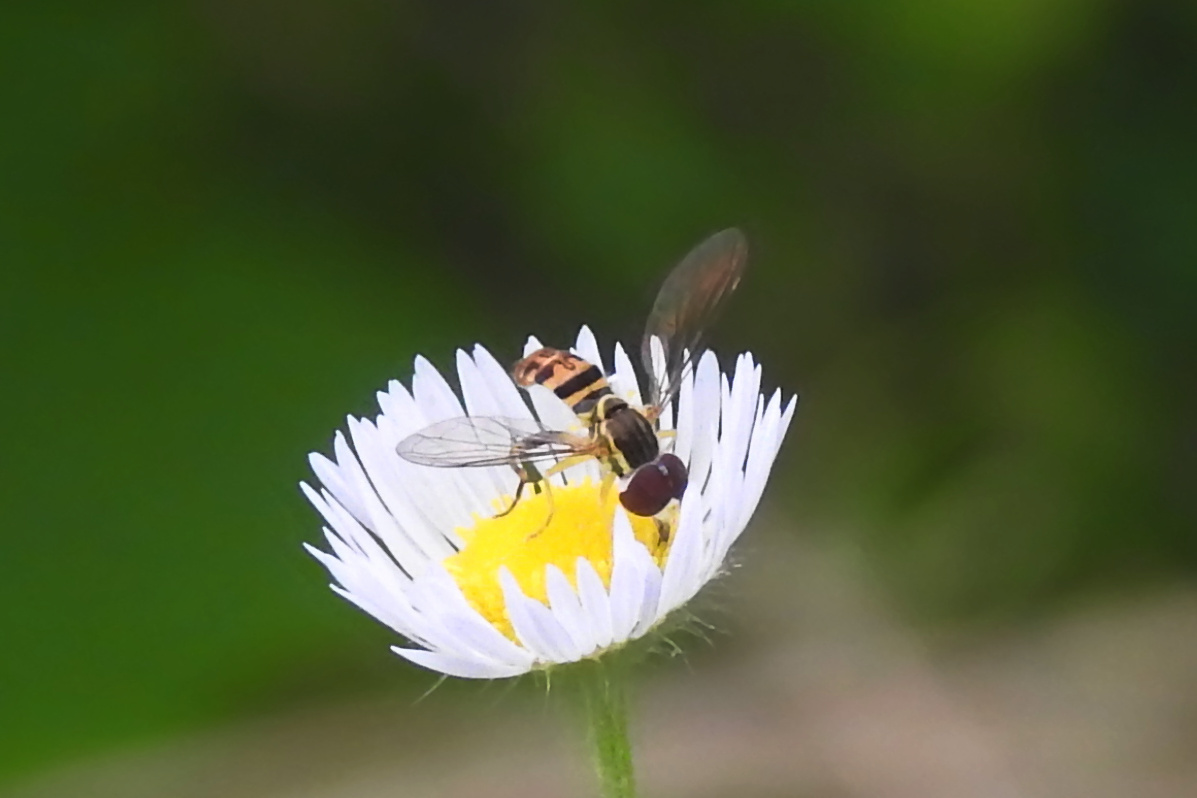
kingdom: Animalia
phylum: Arthropoda
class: Insecta
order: Diptera
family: Syrphidae
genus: Toxomerus
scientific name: Toxomerus geminatus
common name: Eastern calligrapher
